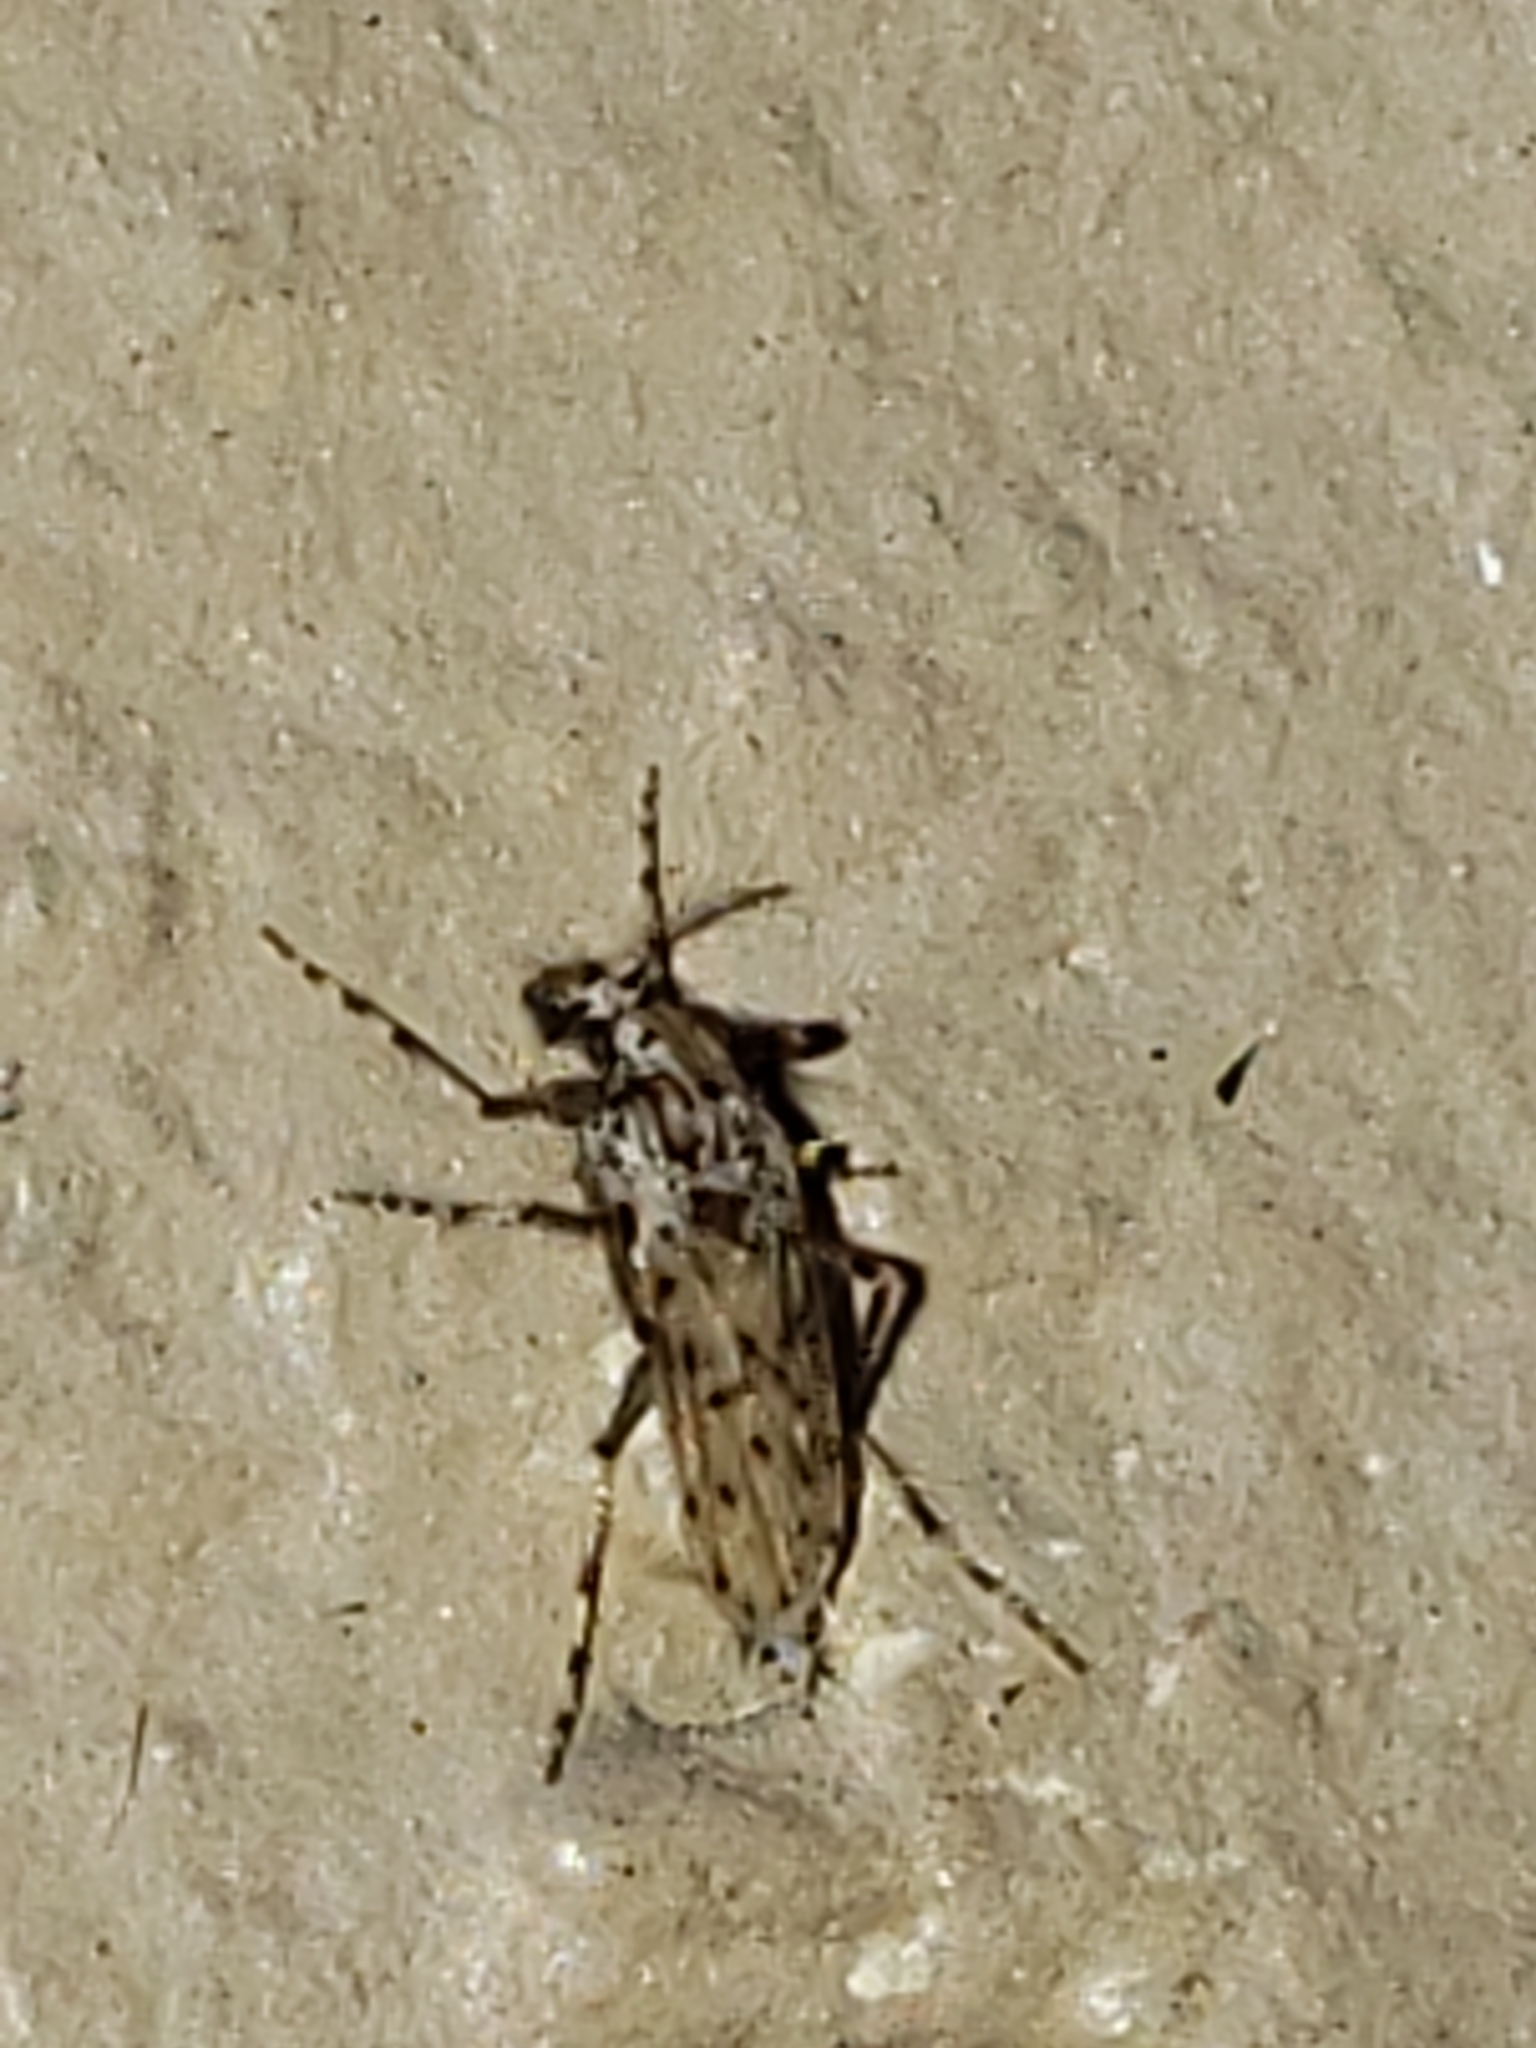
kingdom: Animalia
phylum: Arthropoda
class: Insecta
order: Diptera
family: Chaoboridae
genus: Chaoborus
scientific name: Chaoborus punctipennis
